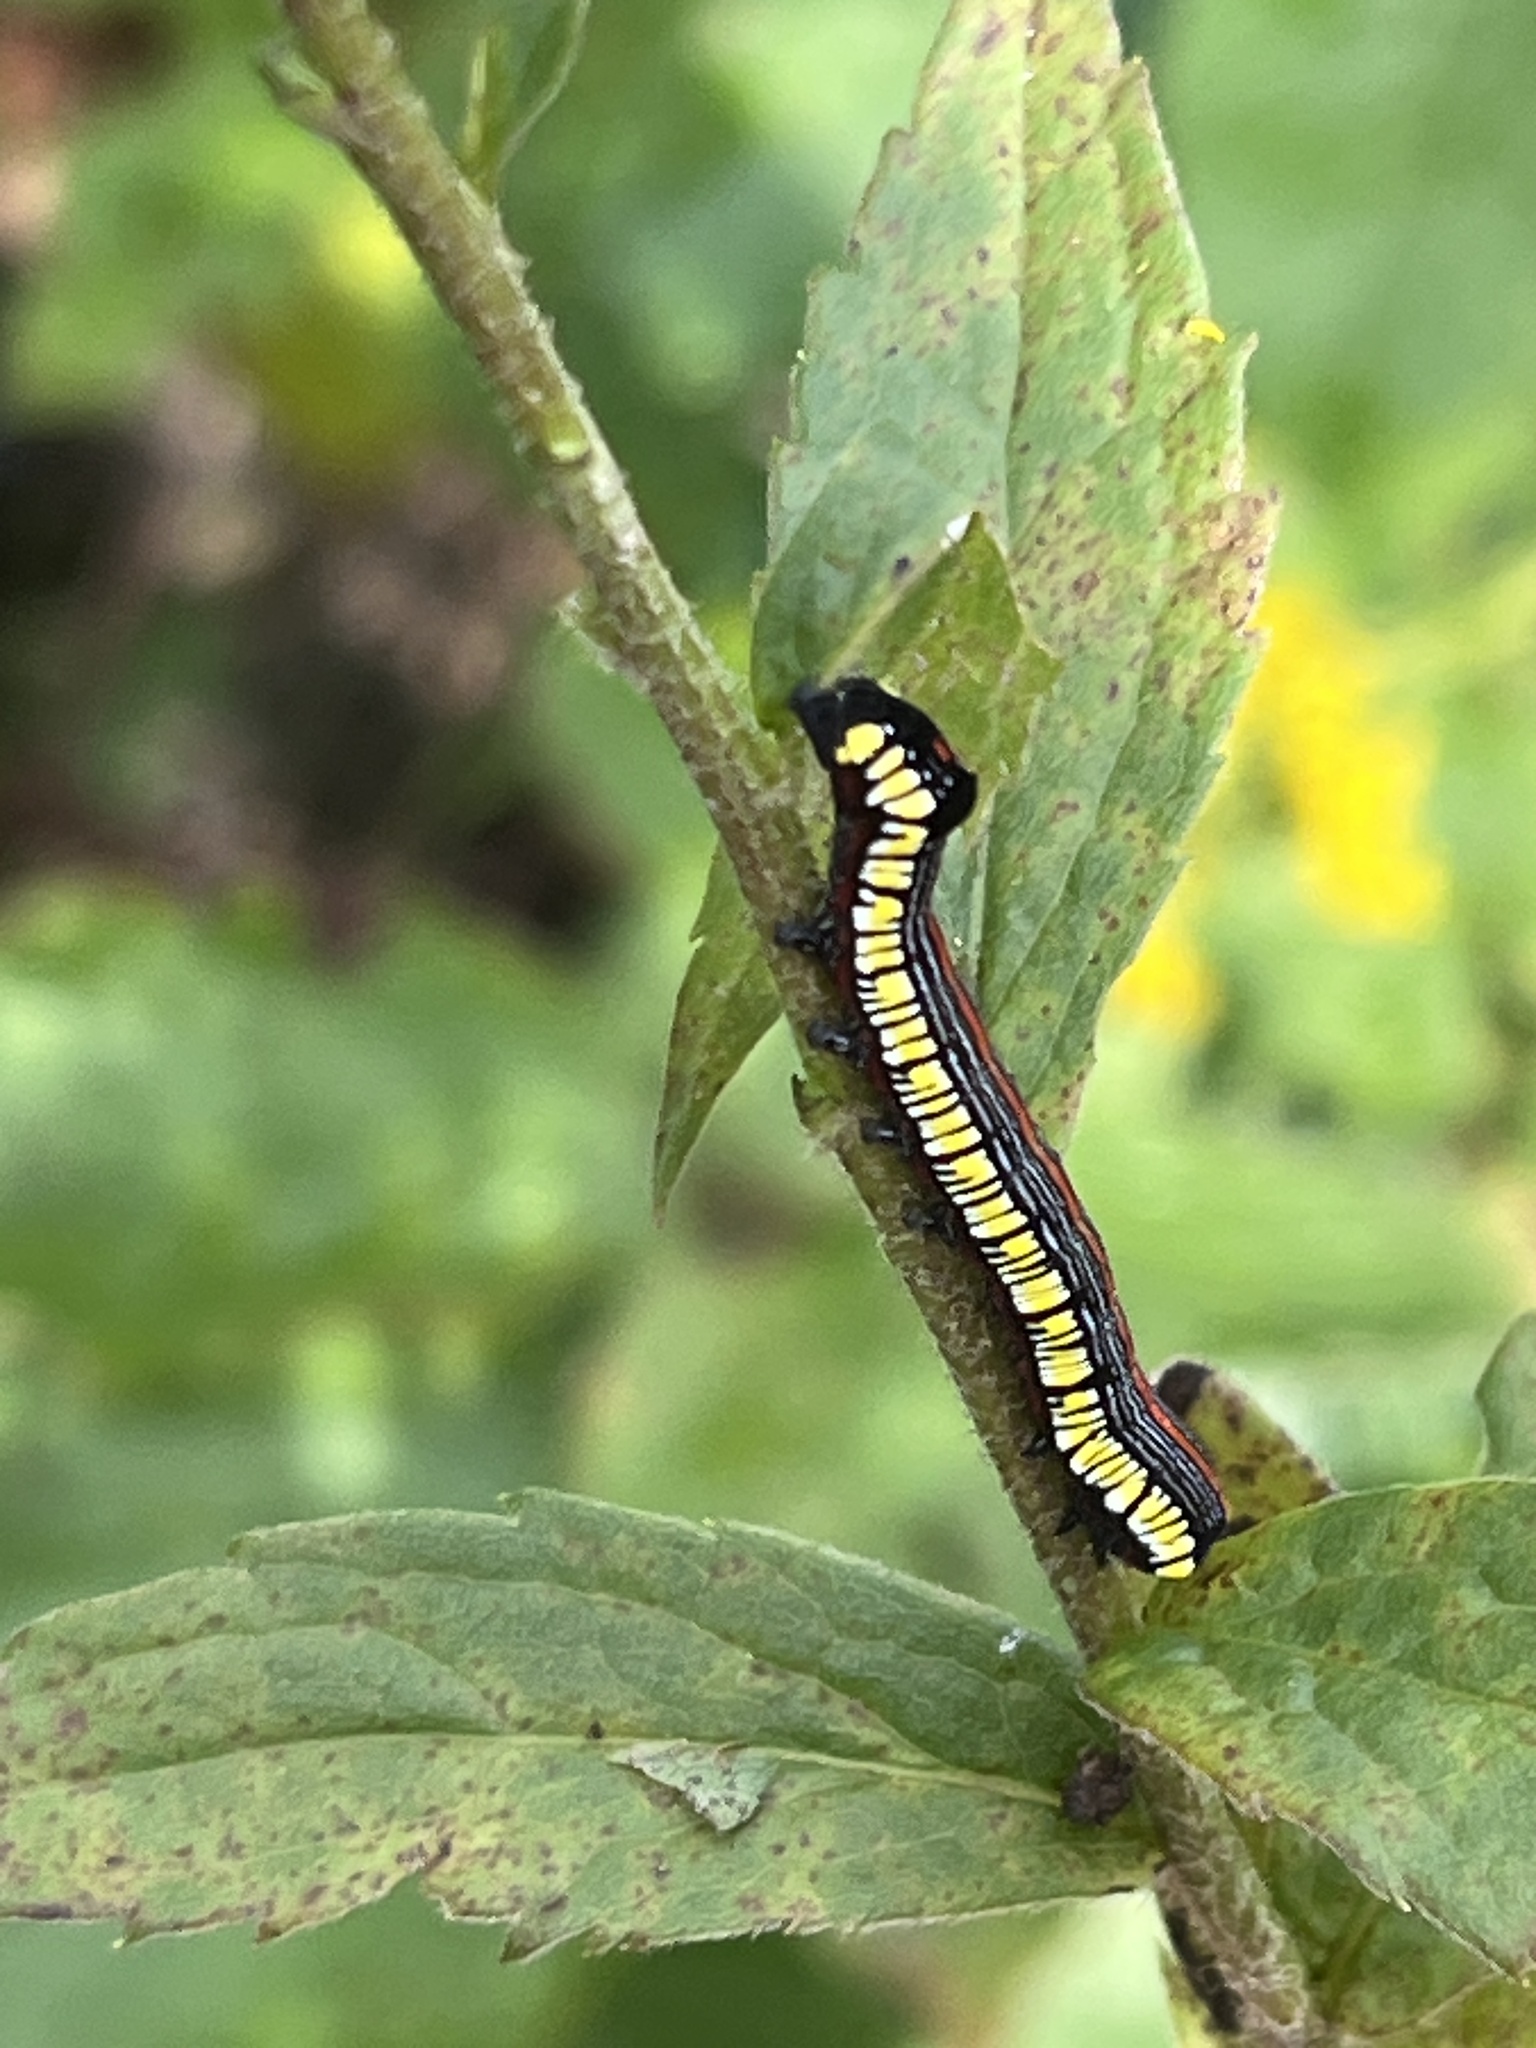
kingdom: Animalia
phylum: Arthropoda
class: Insecta
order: Lepidoptera
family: Noctuidae
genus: Cucullia
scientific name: Cucullia convexipennis
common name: Brown-hooded owlet
